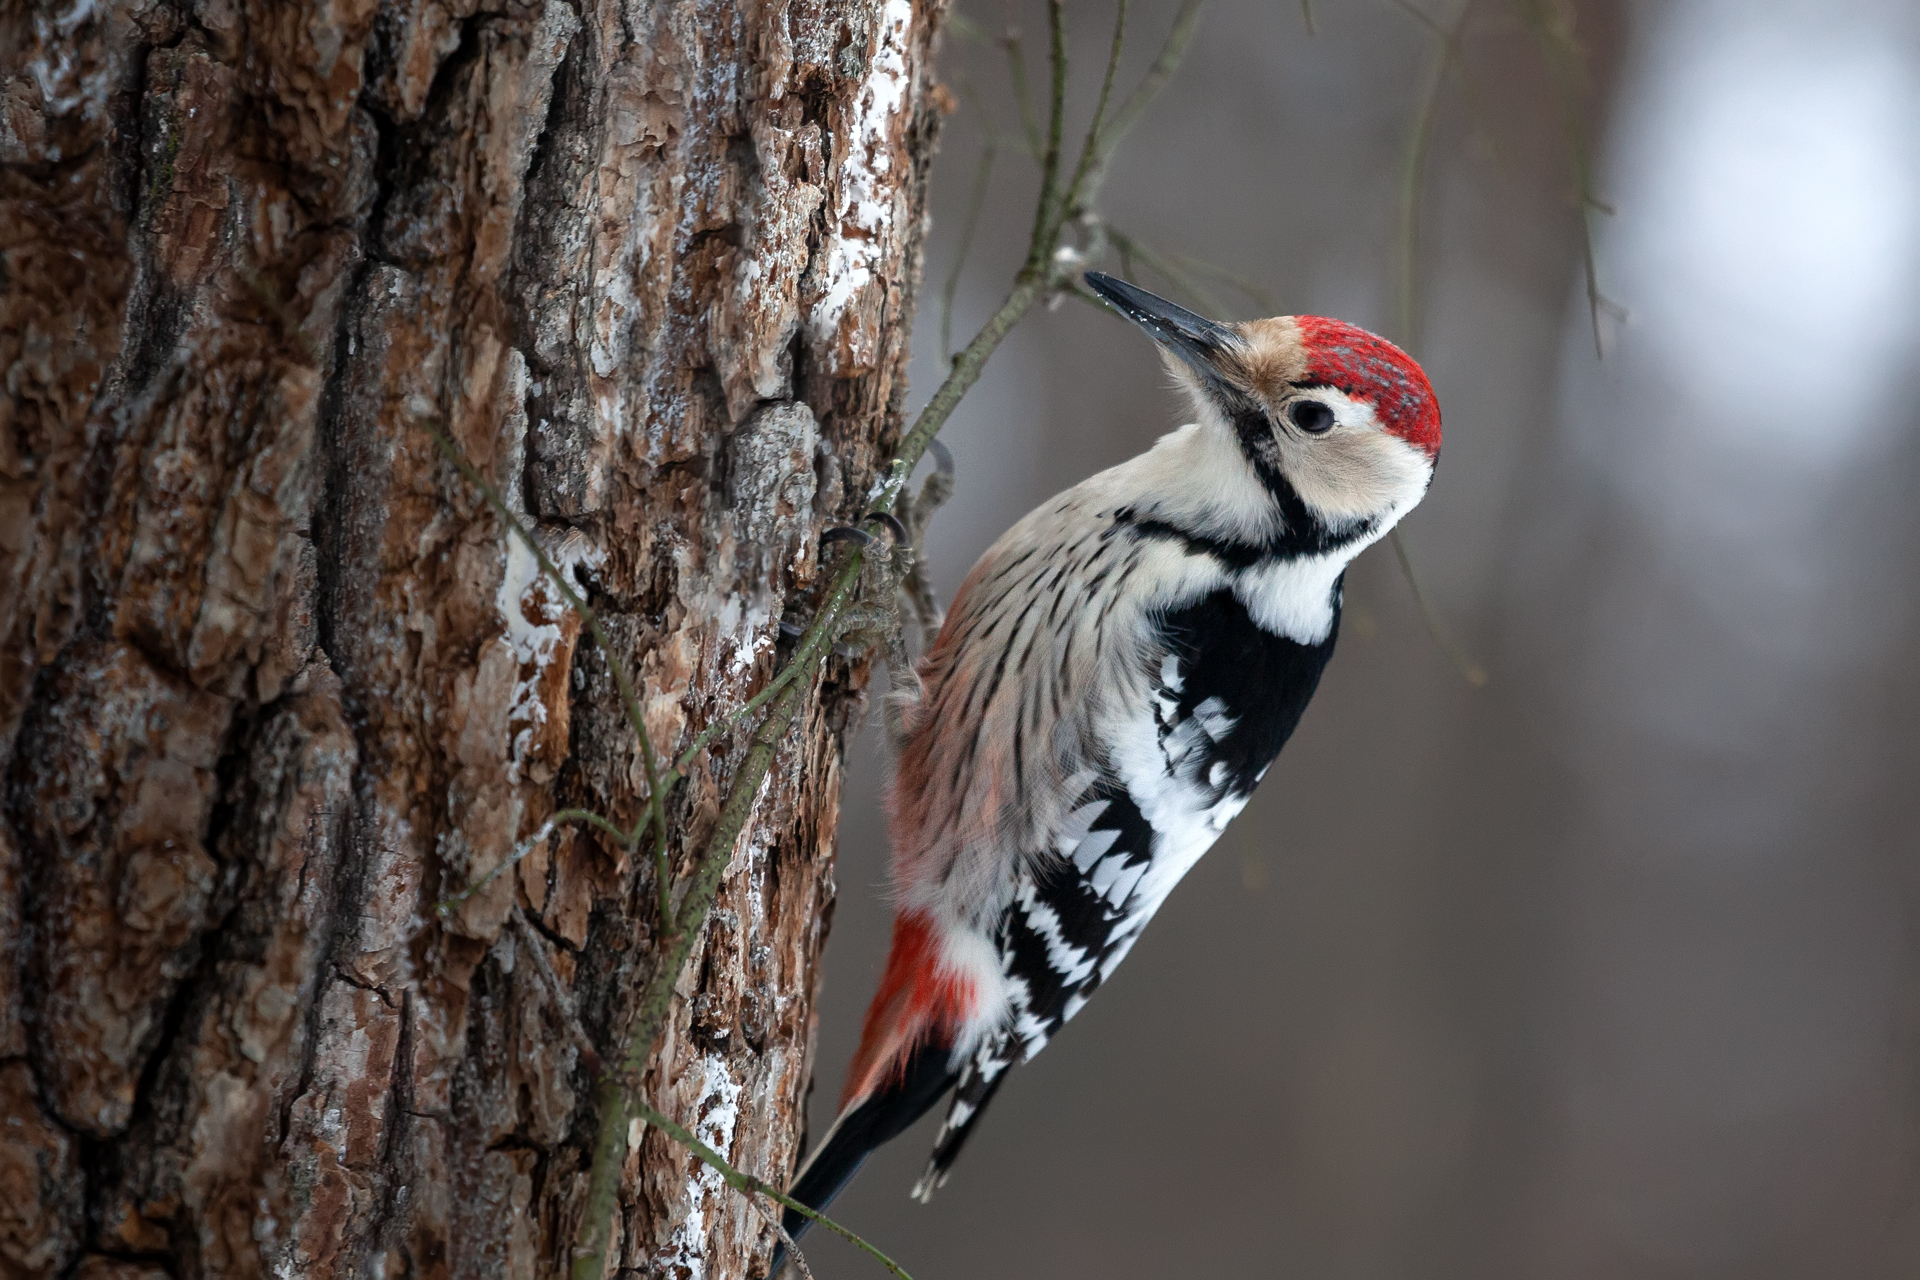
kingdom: Animalia
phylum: Chordata
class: Aves
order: Piciformes
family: Picidae
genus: Dendrocopos
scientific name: Dendrocopos leucotos
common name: White-backed woodpecker
